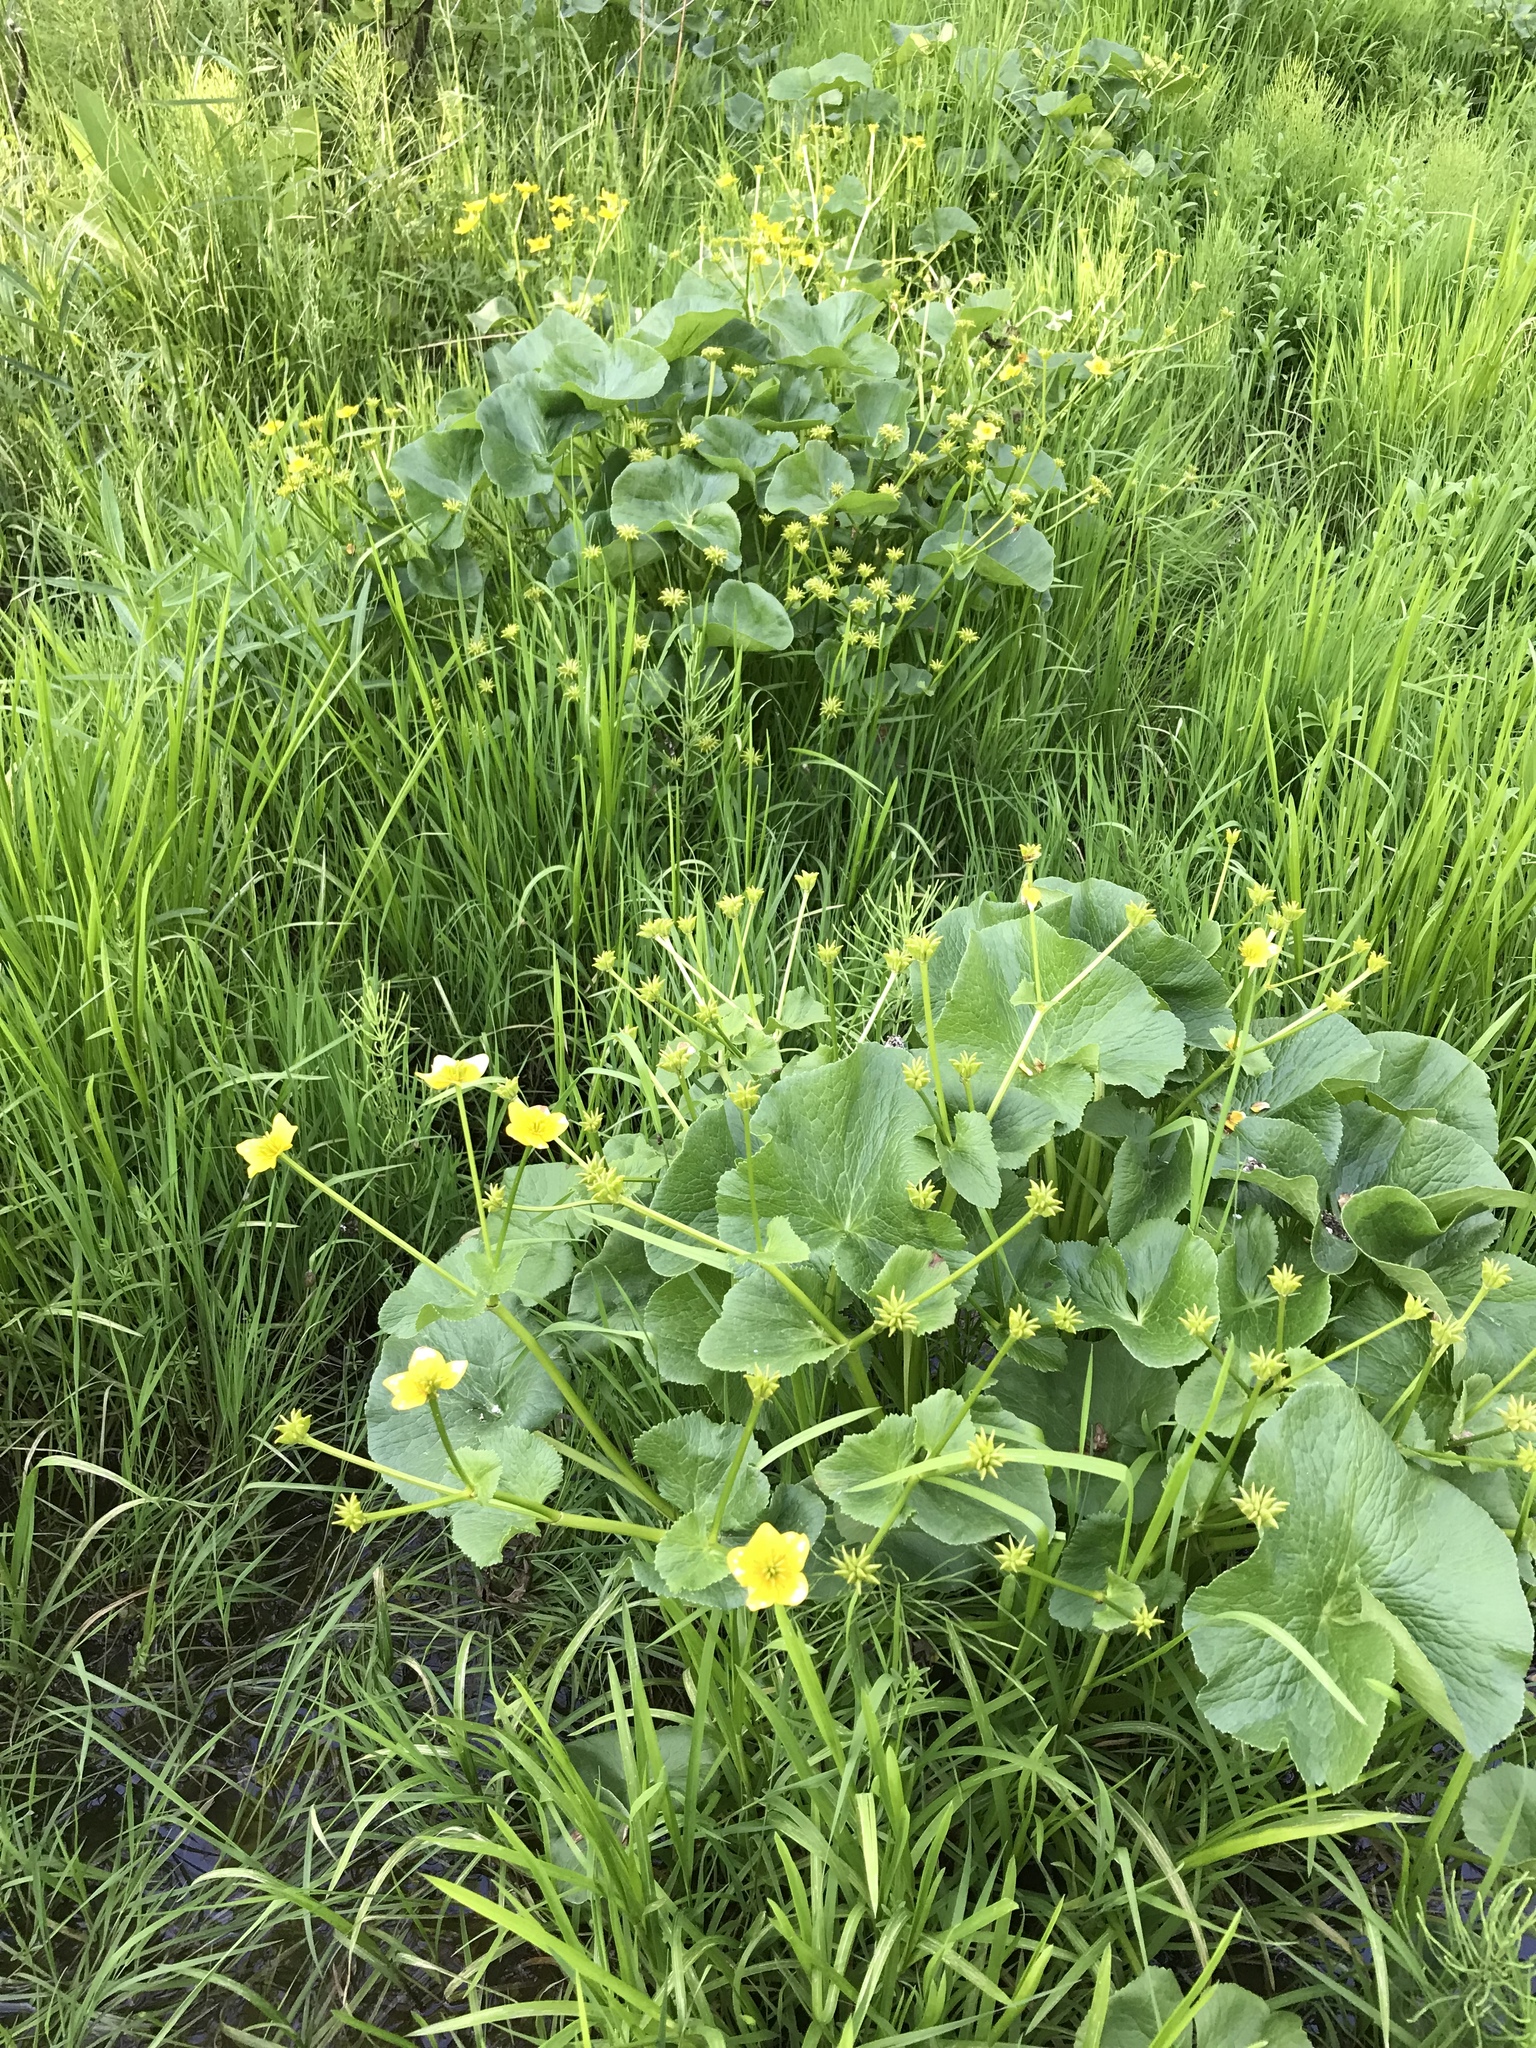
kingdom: Plantae
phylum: Tracheophyta
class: Magnoliopsida
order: Ranunculales
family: Ranunculaceae
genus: Caltha
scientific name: Caltha palustris
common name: Marsh marigold
